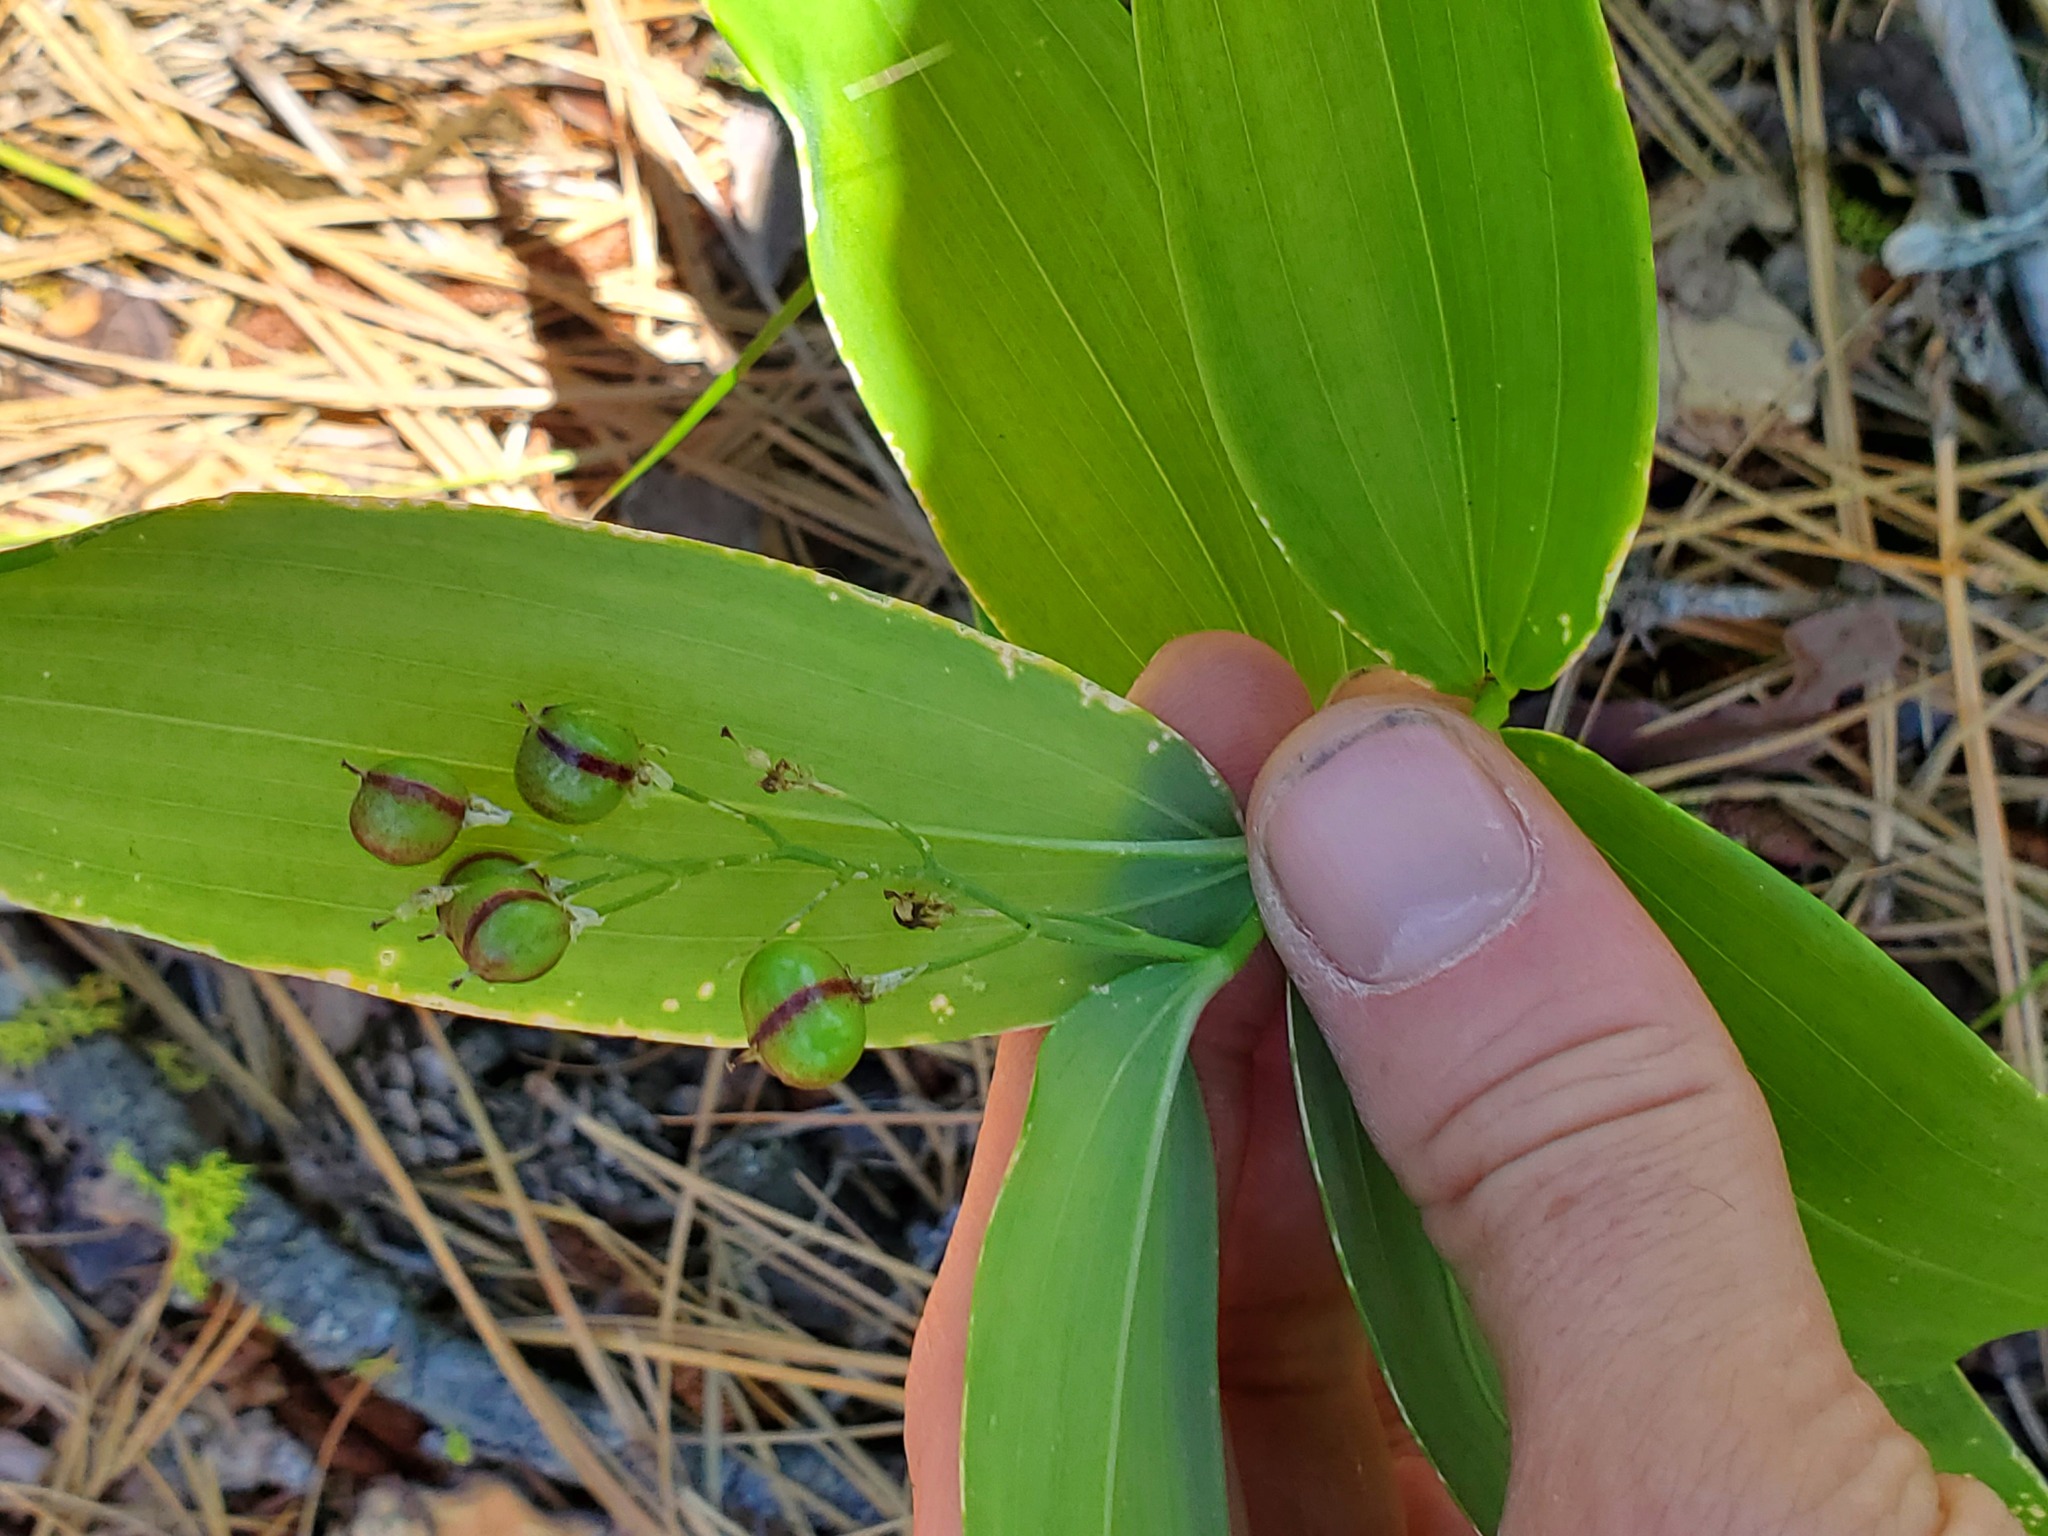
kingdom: Plantae
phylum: Tracheophyta
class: Liliopsida
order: Asparagales
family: Asparagaceae
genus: Maianthemum
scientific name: Maianthemum stellatum
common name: Little false solomon's seal
